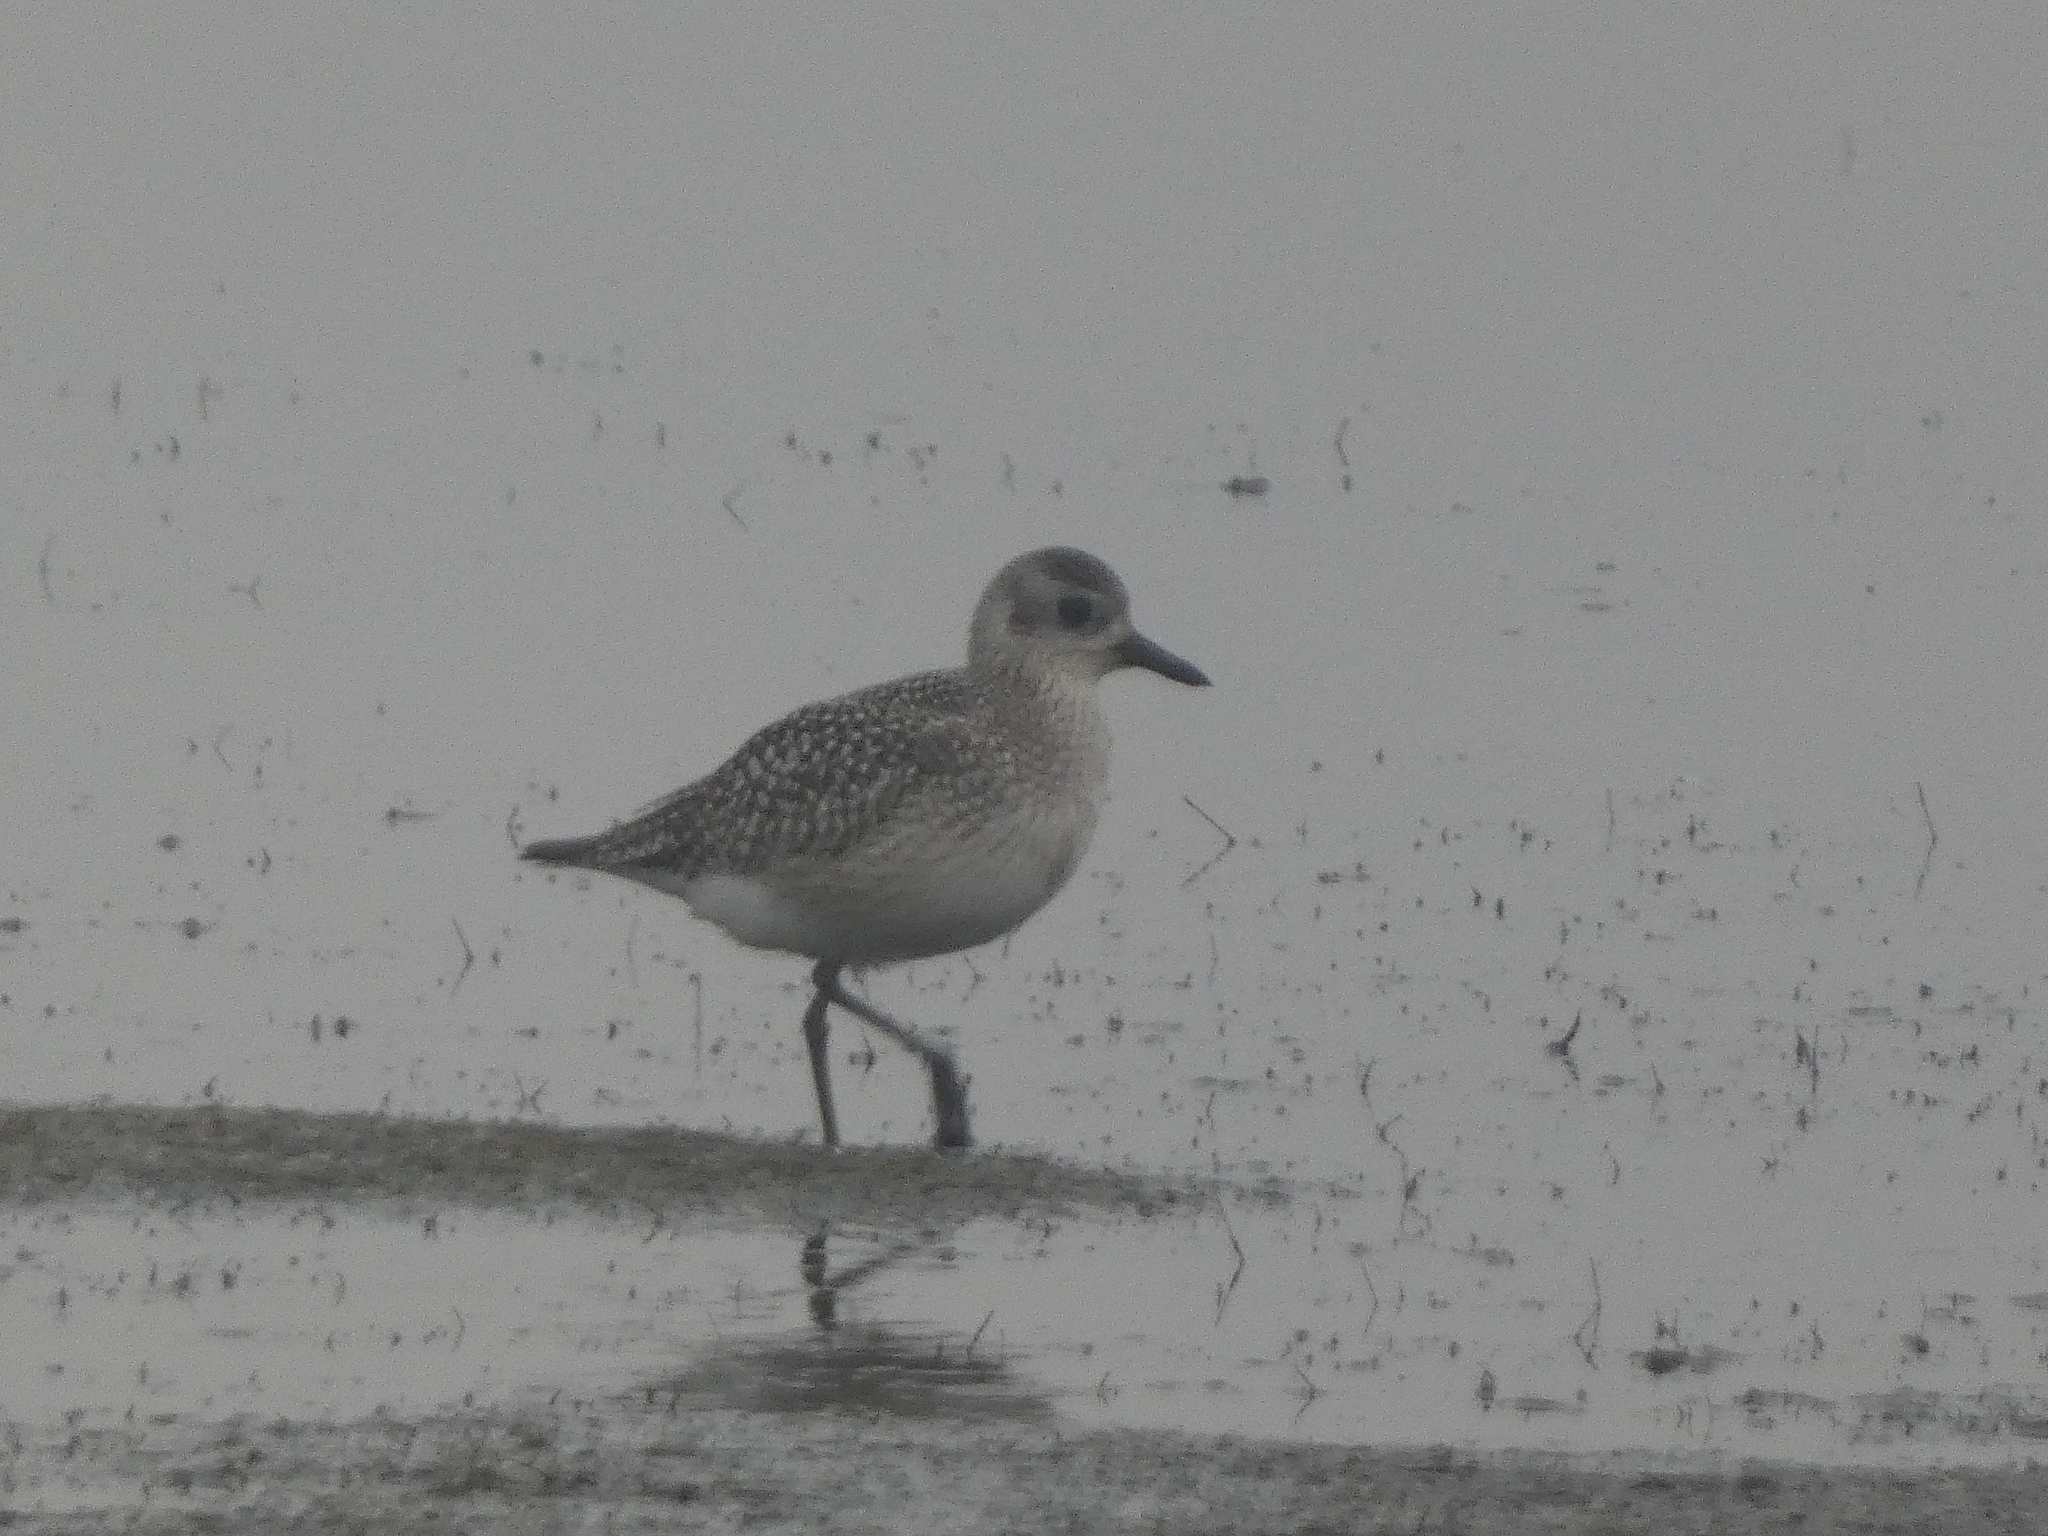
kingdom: Animalia
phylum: Chordata
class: Aves
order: Charadriiformes
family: Charadriidae
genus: Pluvialis
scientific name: Pluvialis squatarola
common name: Grey plover
